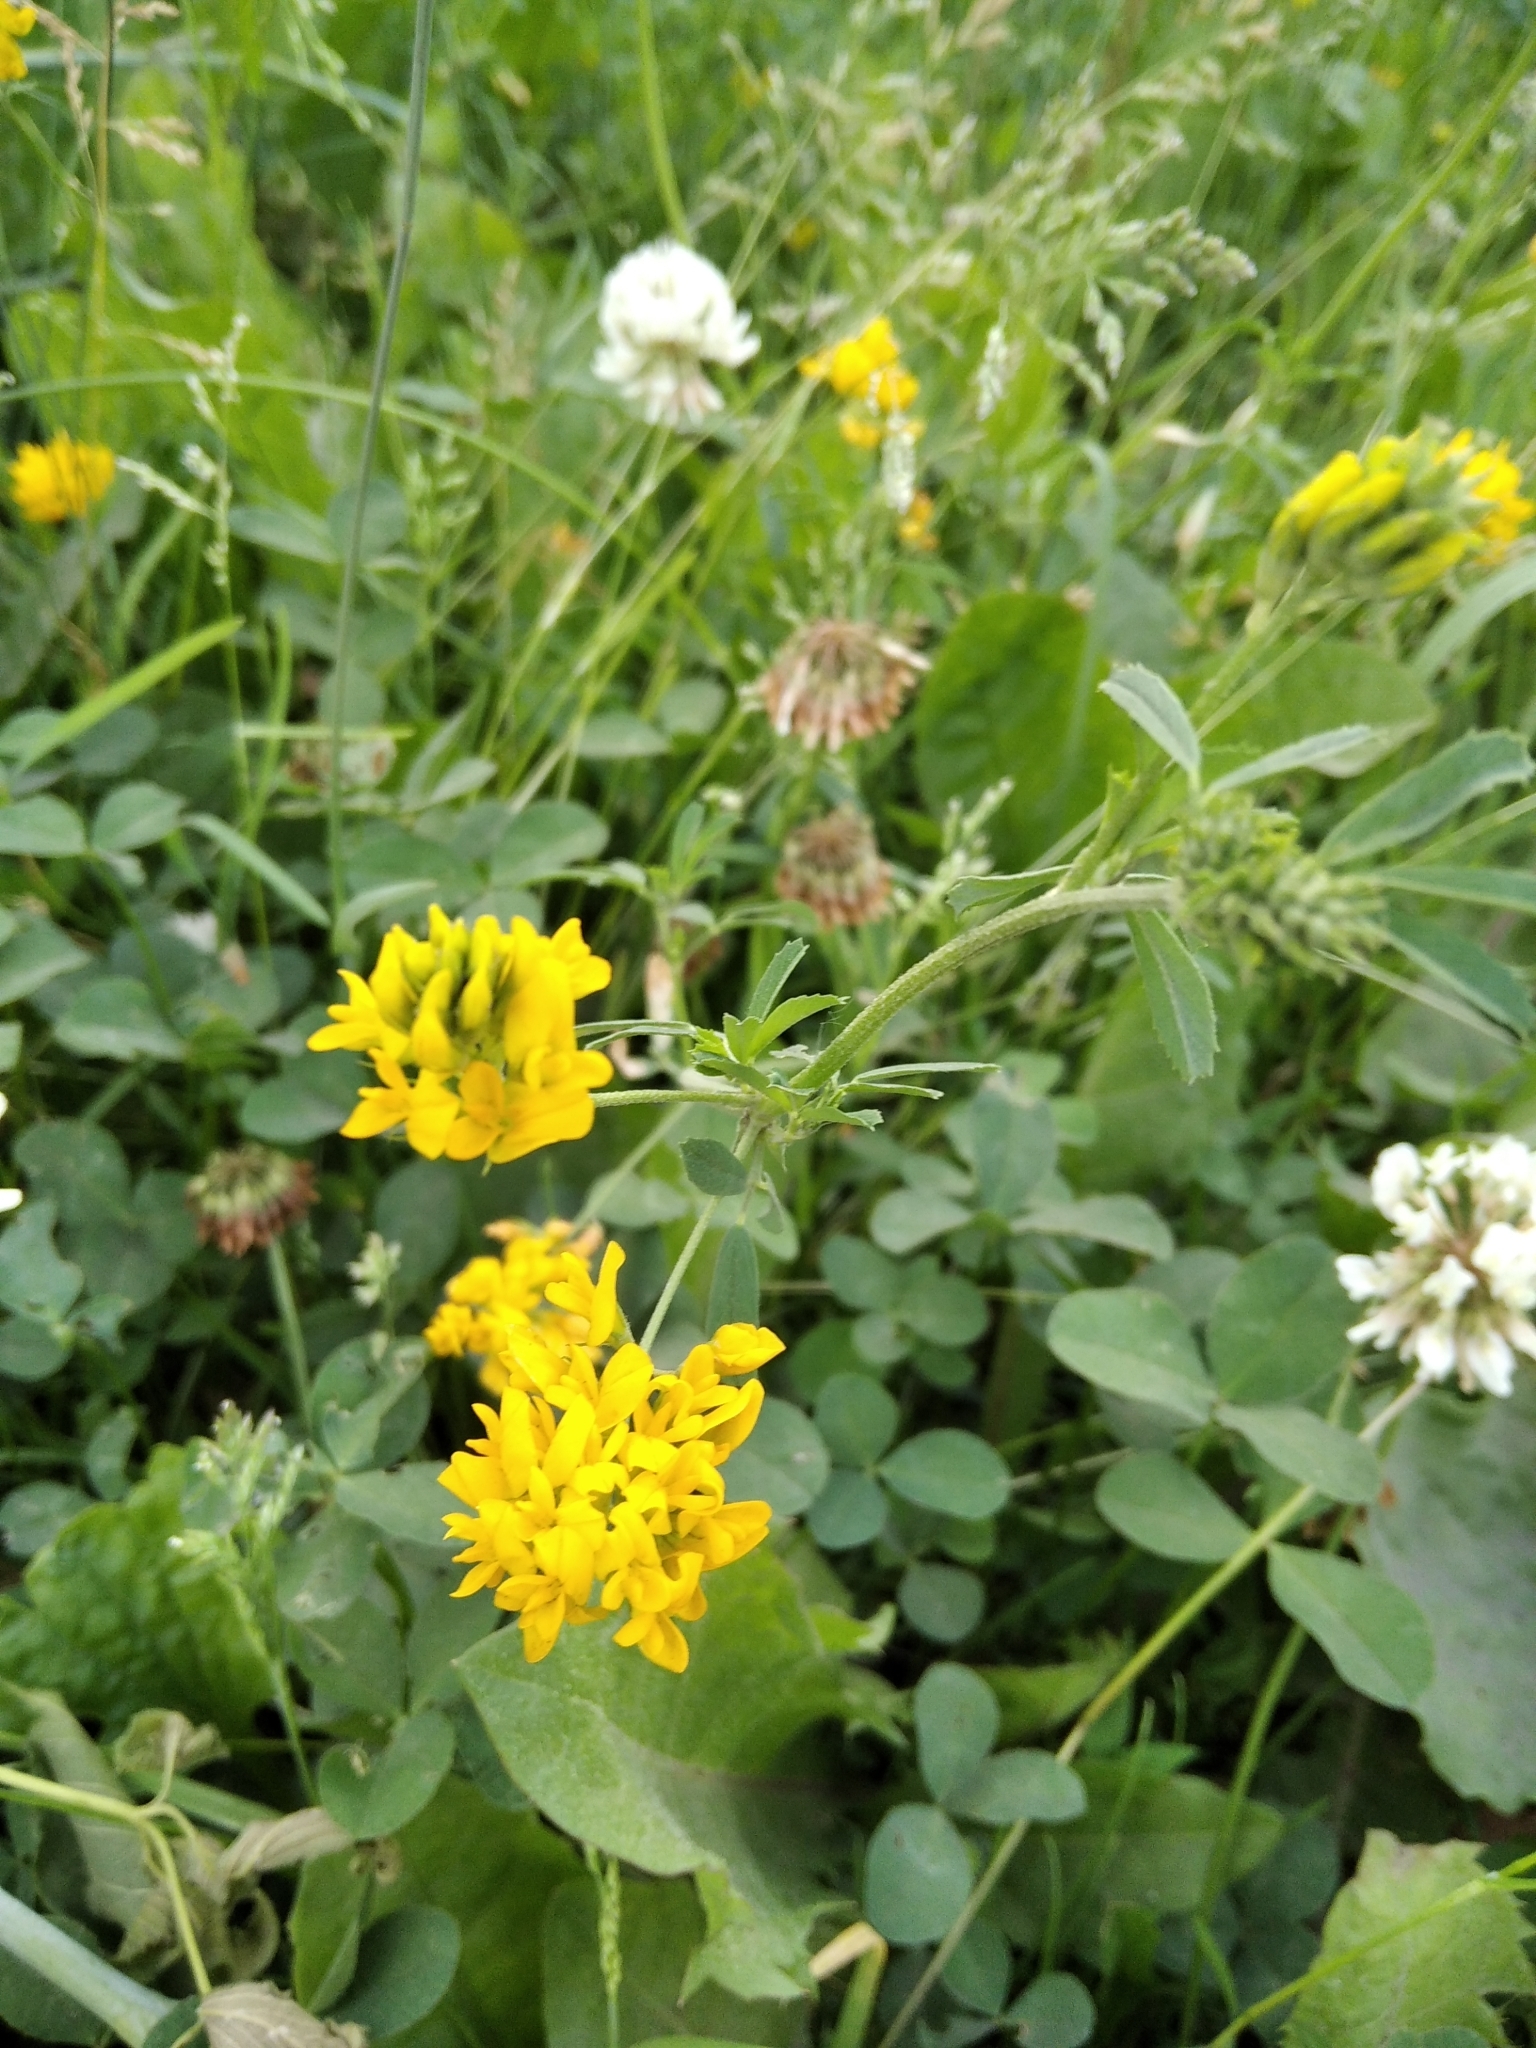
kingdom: Plantae
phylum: Tracheophyta
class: Magnoliopsida
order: Fabales
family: Fabaceae
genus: Medicago
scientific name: Medicago falcata
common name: Sickle medick
